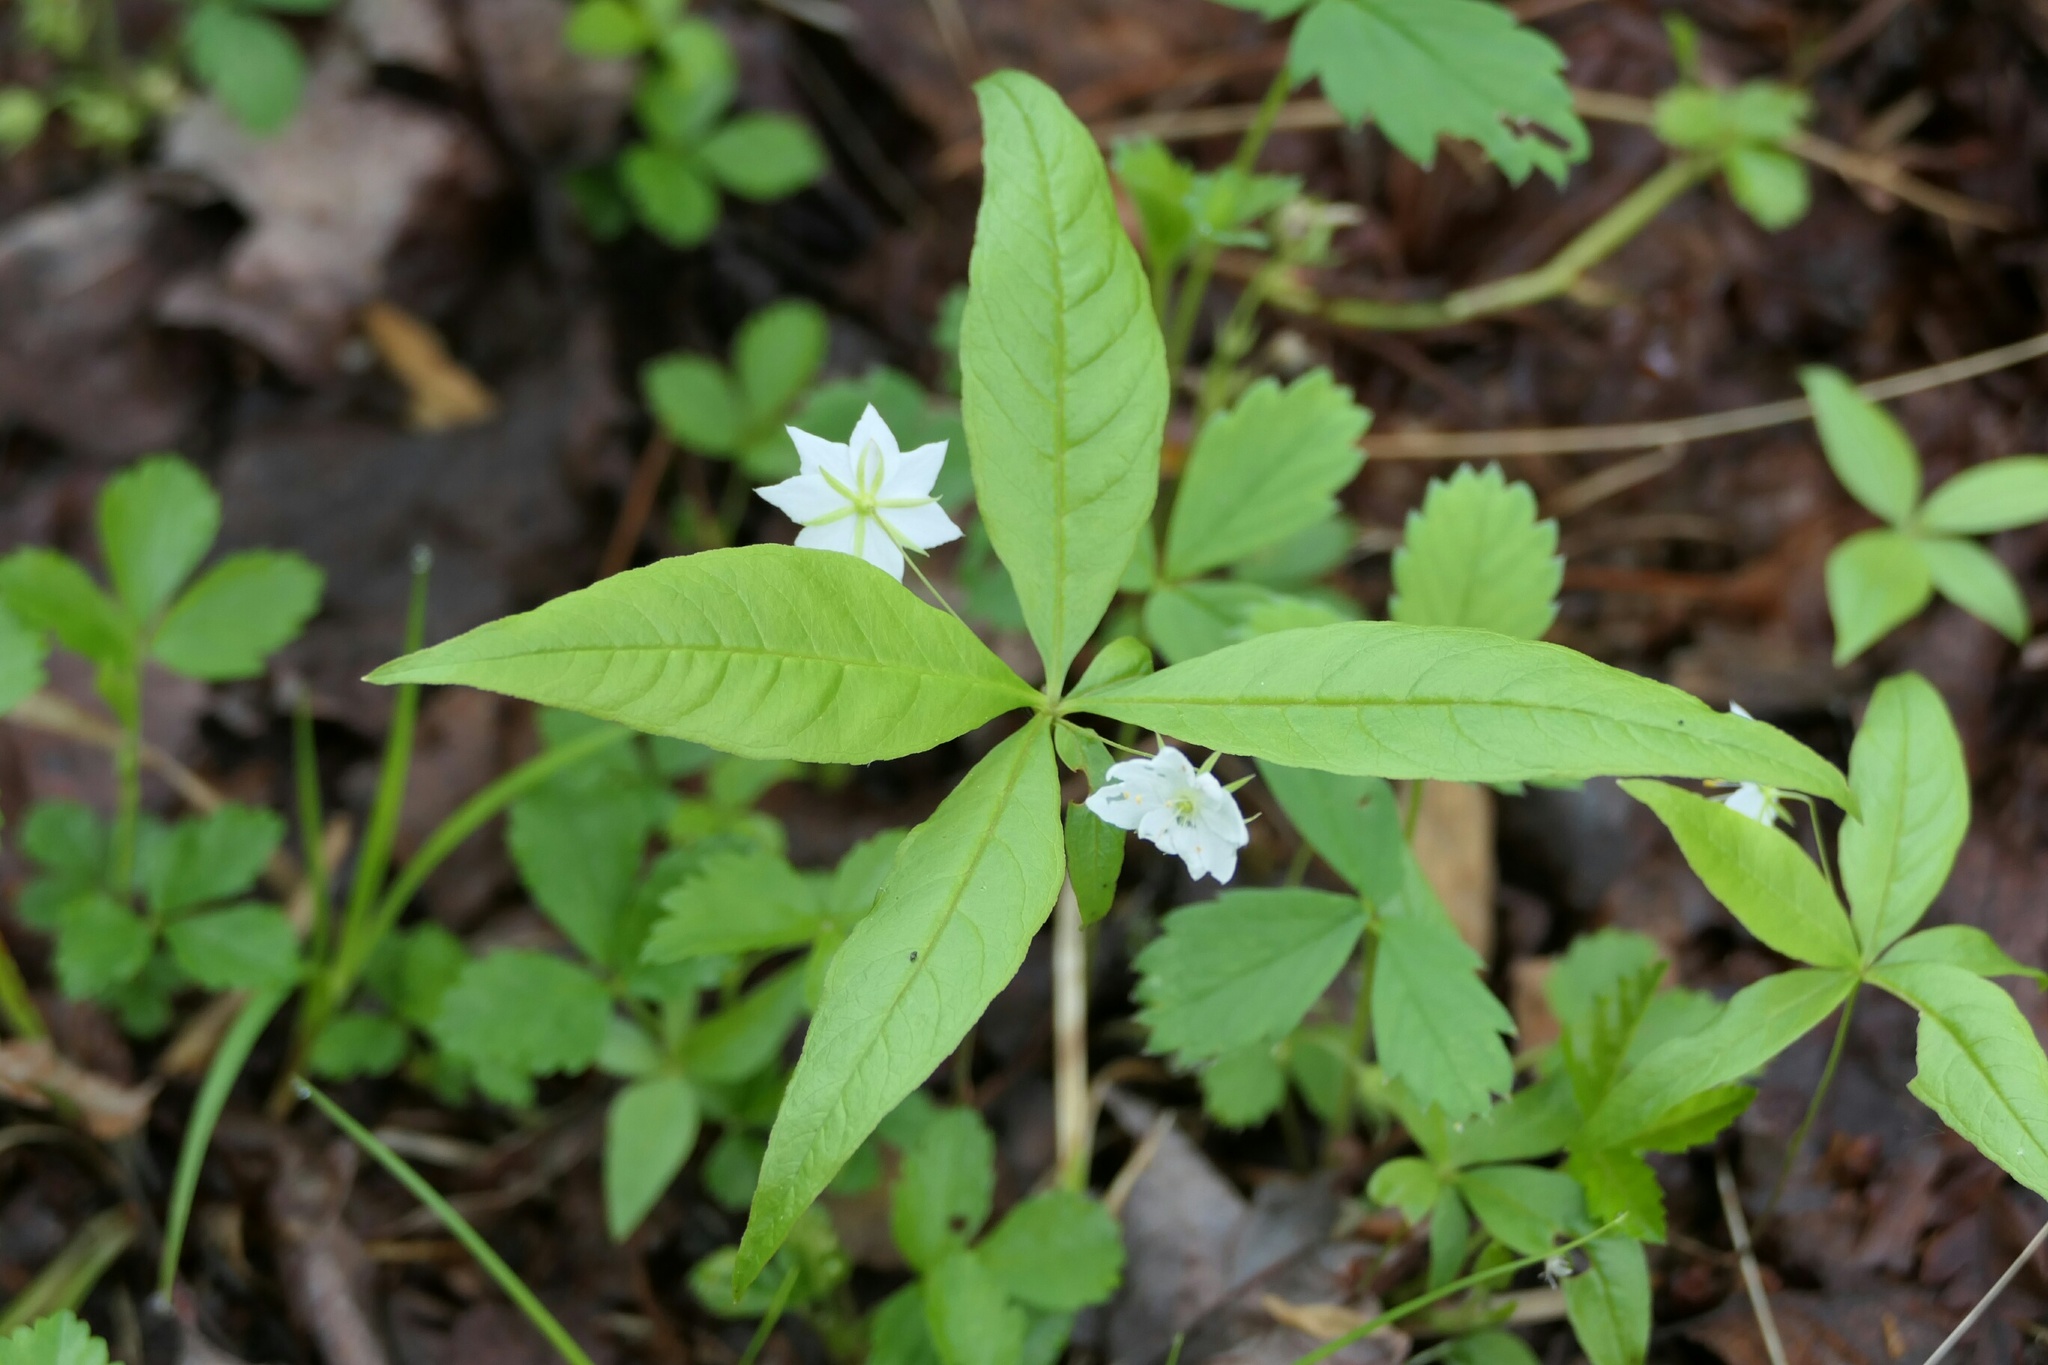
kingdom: Plantae
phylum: Tracheophyta
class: Magnoliopsida
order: Ericales
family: Primulaceae
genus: Lysimachia
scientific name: Lysimachia borealis
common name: American starflower
